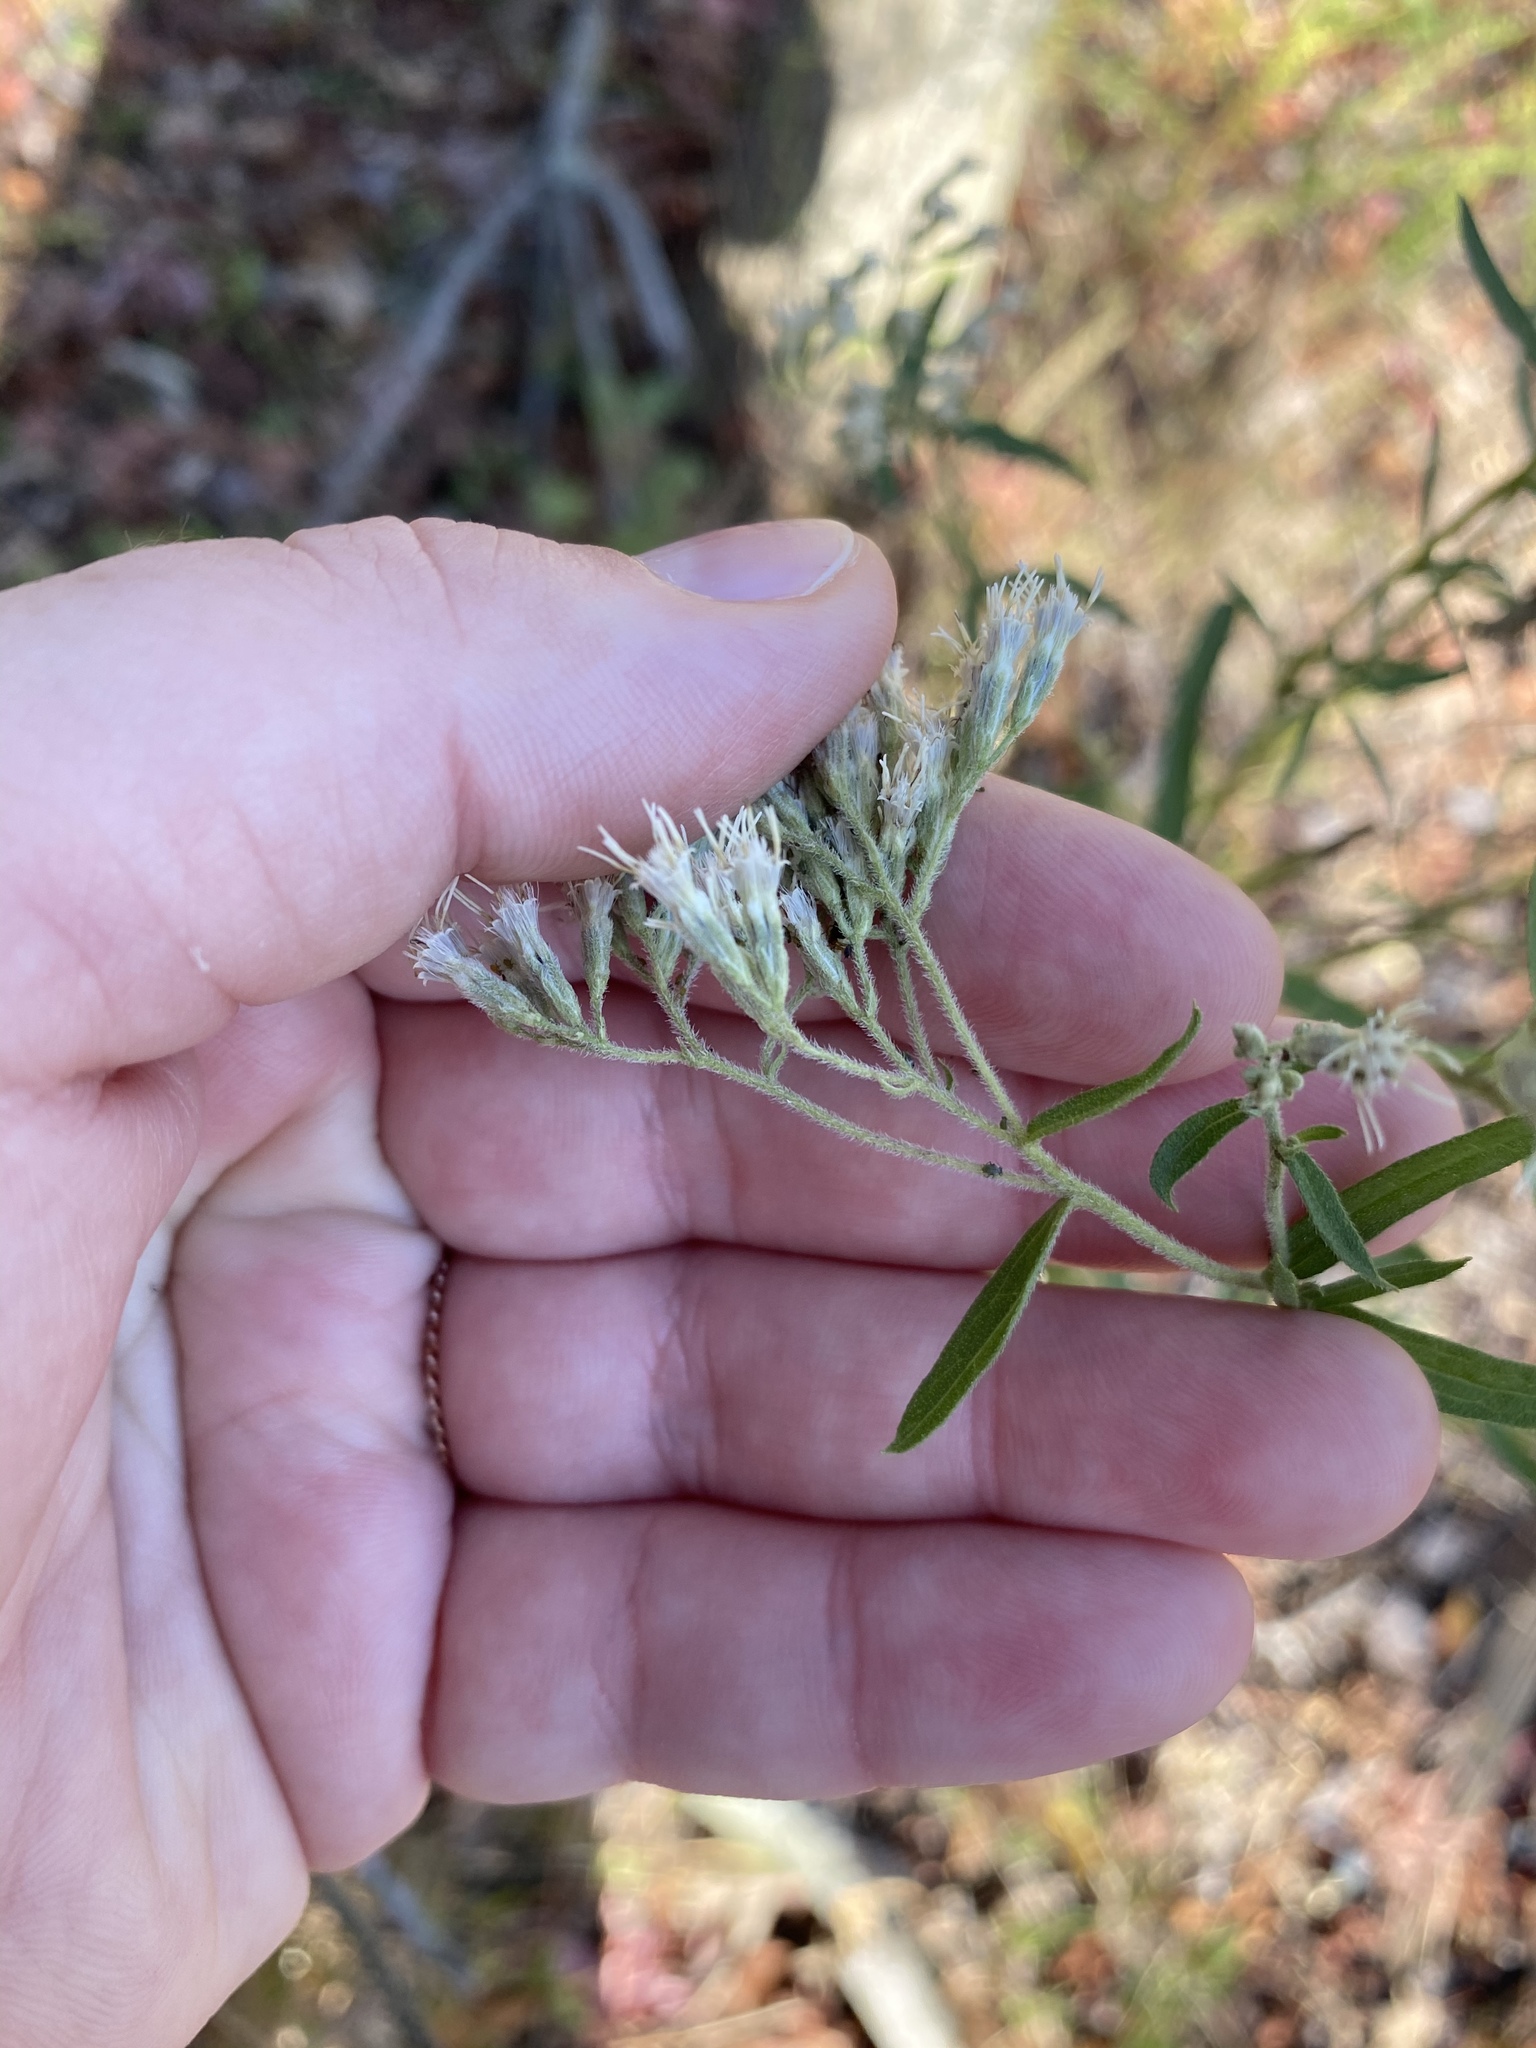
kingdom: Plantae
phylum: Tracheophyta
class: Magnoliopsida
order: Asterales
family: Asteraceae
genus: Eupatorium
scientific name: Eupatorium torreyanum
